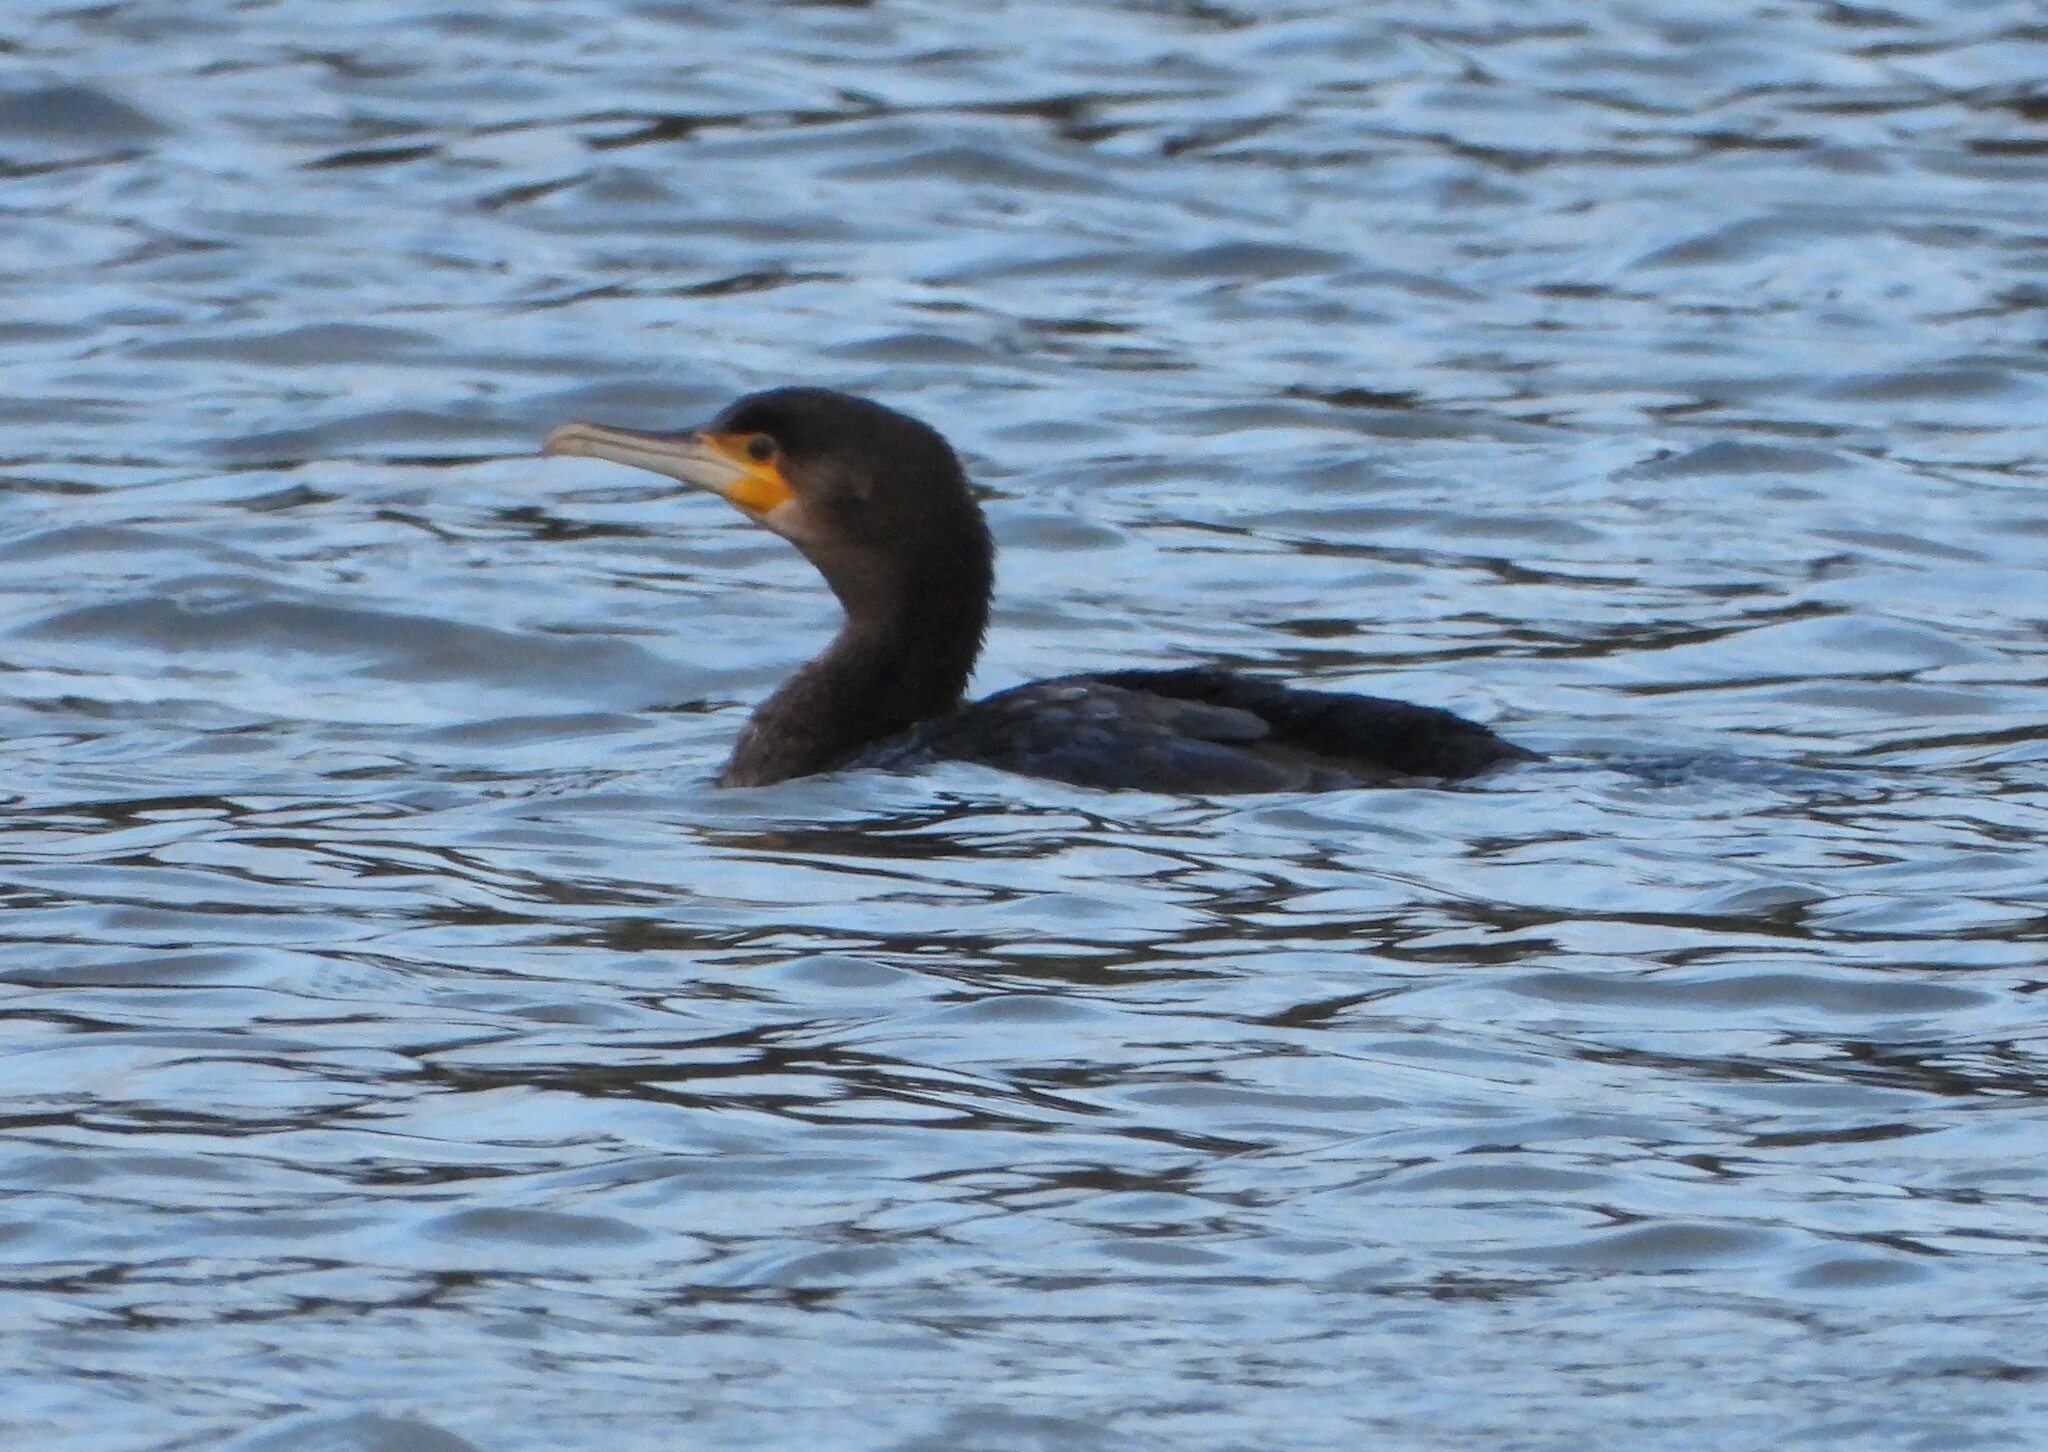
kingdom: Animalia
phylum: Chordata
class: Aves
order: Suliformes
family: Phalacrocoracidae
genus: Phalacrocorax
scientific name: Phalacrocorax carbo
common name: Great cormorant
